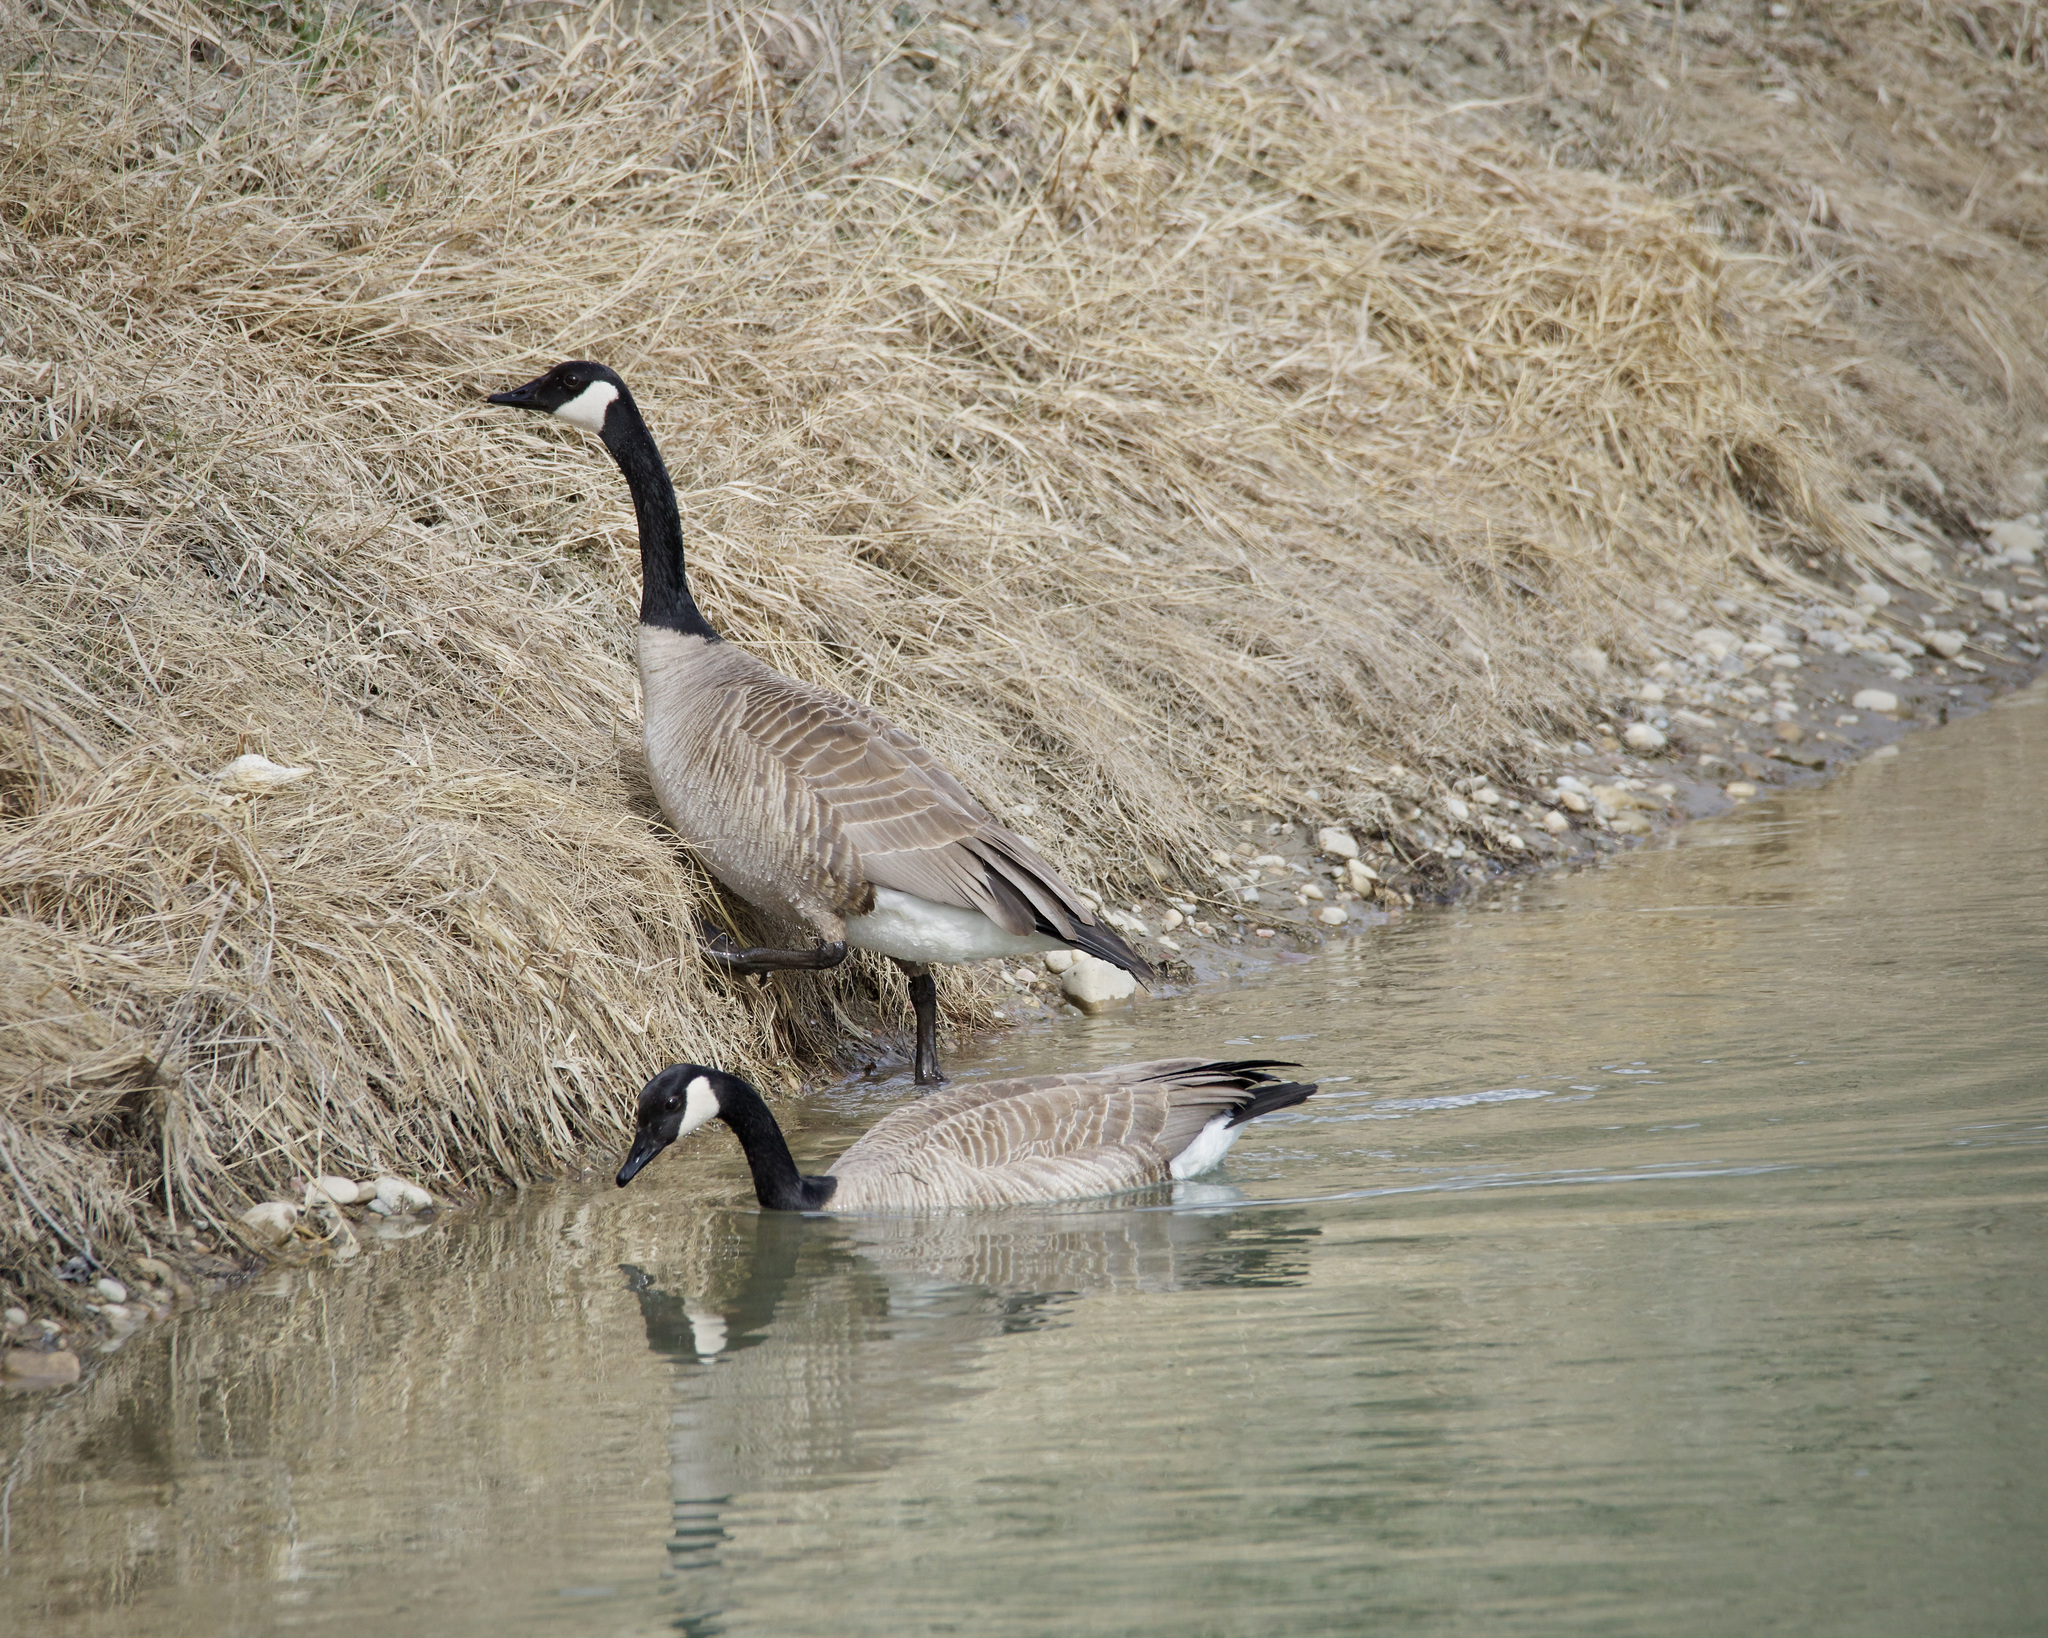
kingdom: Animalia
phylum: Chordata
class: Aves
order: Anseriformes
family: Anatidae
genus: Branta
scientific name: Branta canadensis
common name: Canada goose
